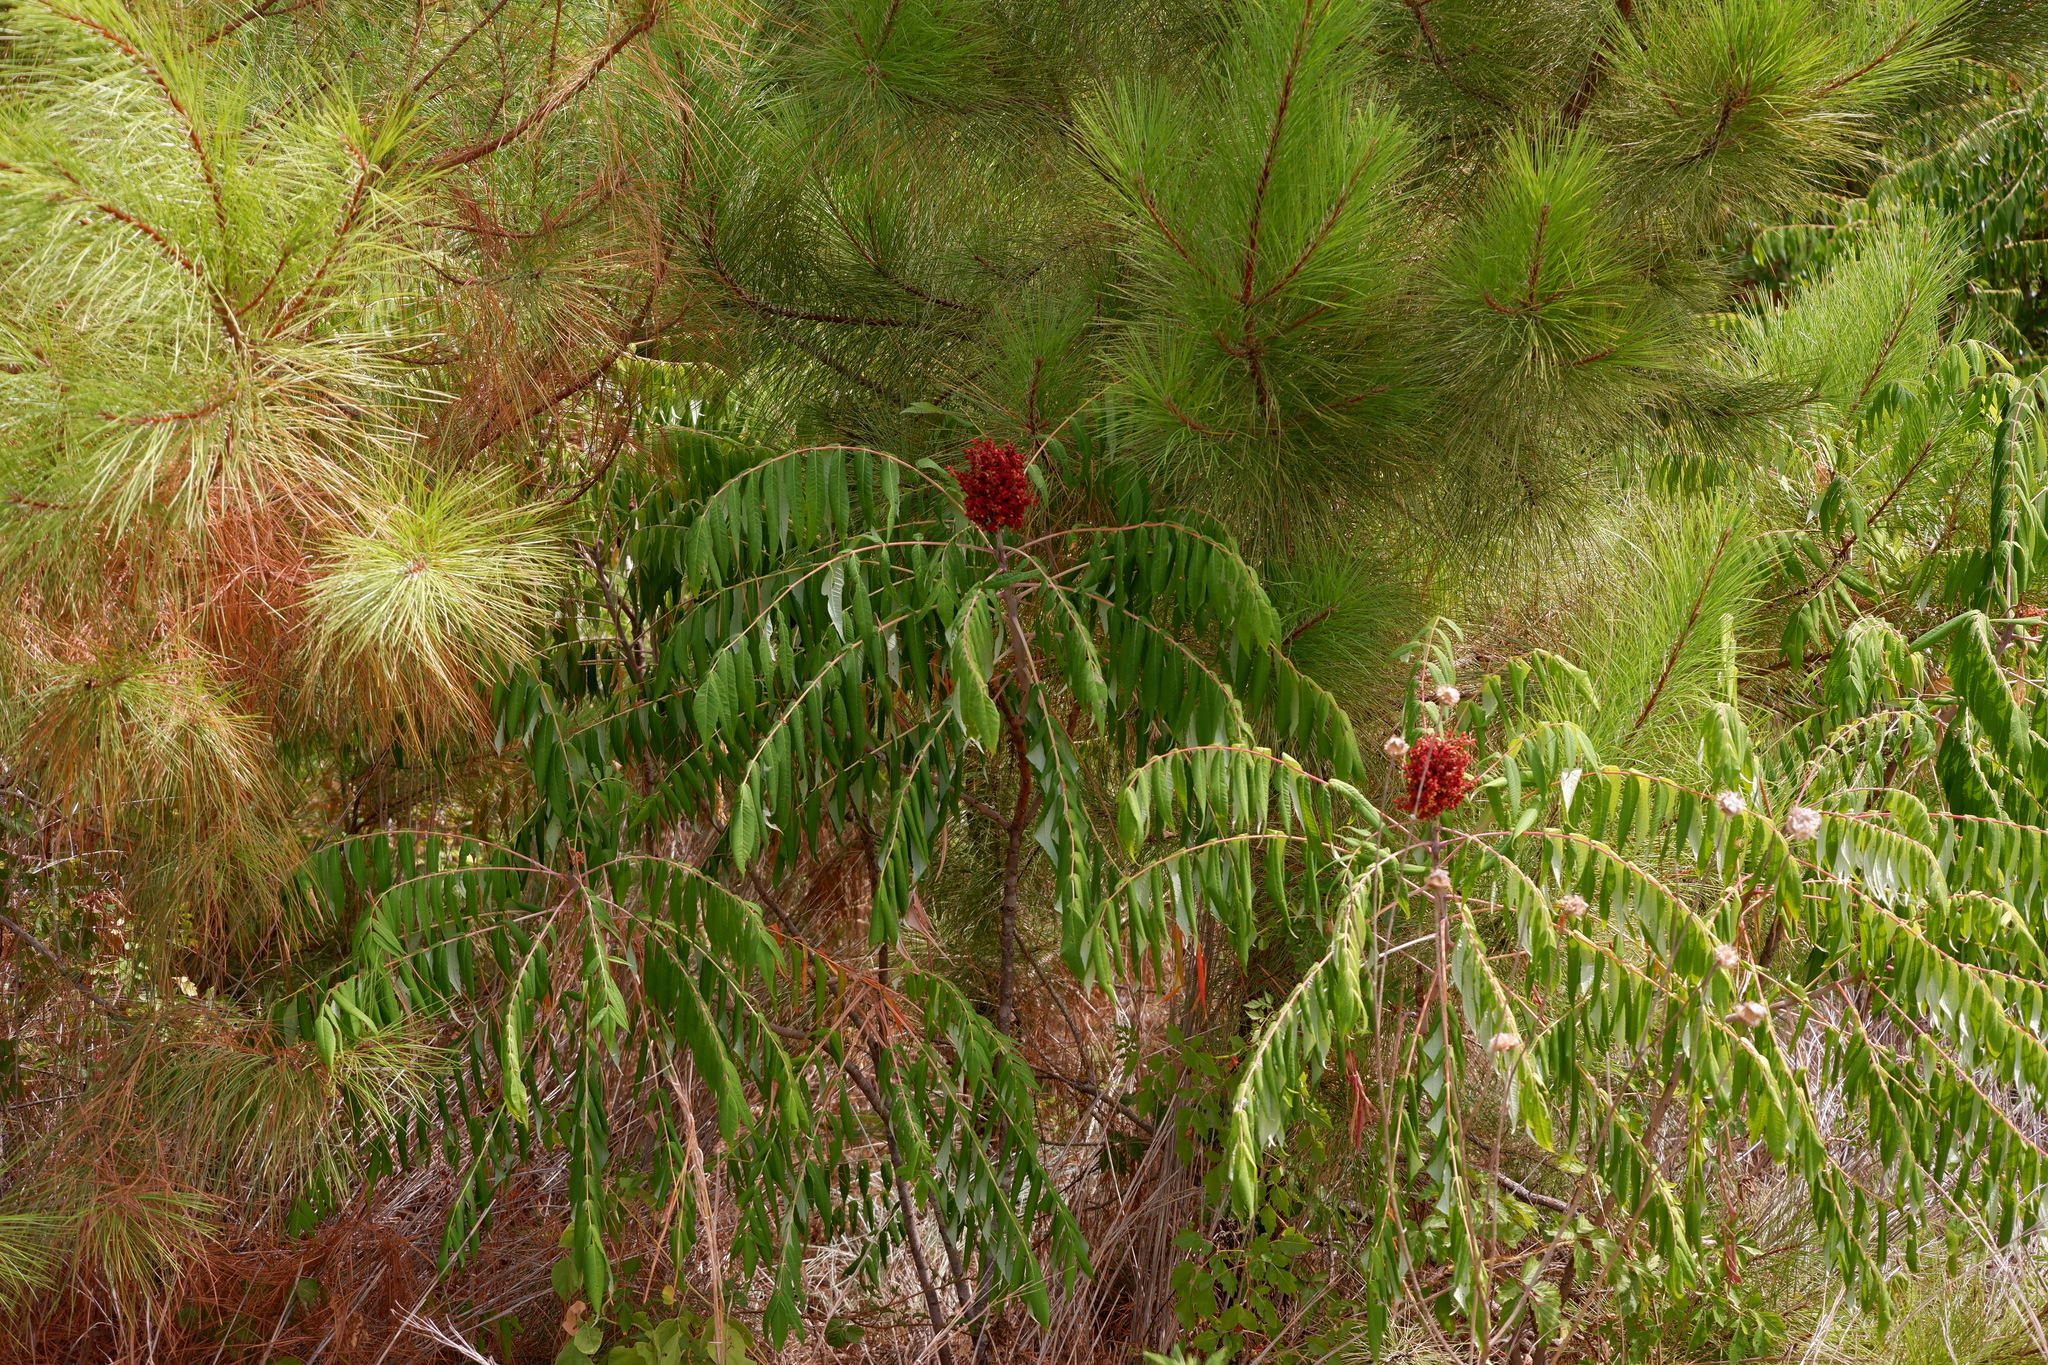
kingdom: Plantae
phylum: Tracheophyta
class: Magnoliopsida
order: Sapindales
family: Anacardiaceae
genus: Rhus
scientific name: Rhus glabra
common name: Scarlet sumac
